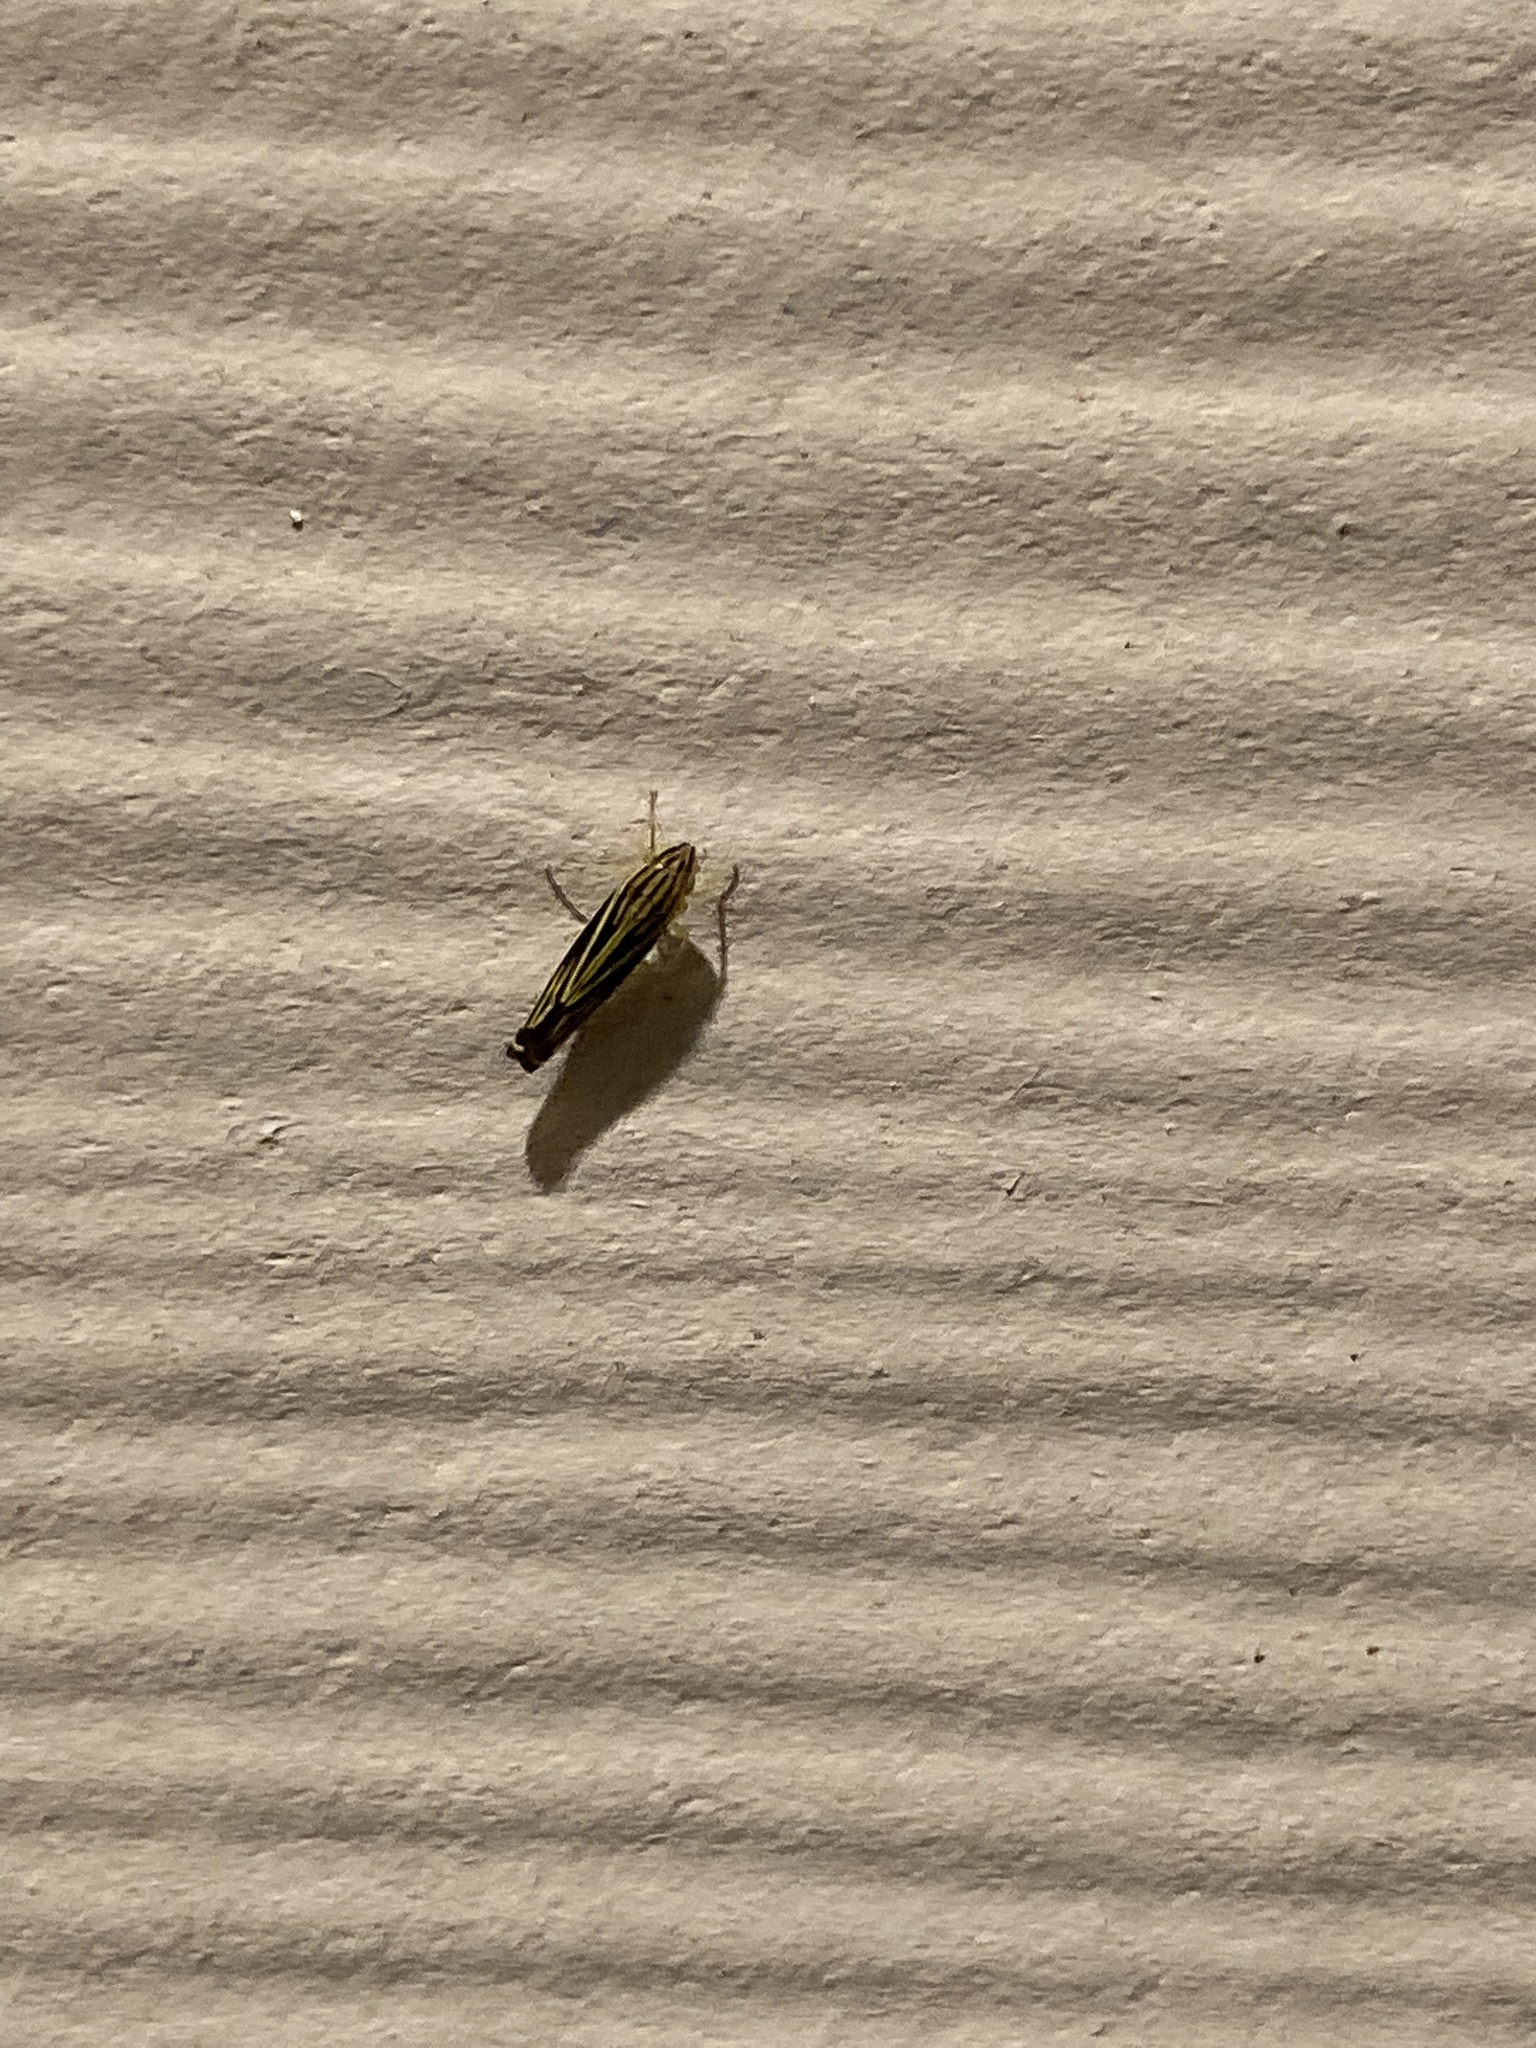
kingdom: Animalia
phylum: Arthropoda
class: Insecta
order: Hemiptera
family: Cicadellidae
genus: Sibovia
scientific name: Sibovia occatoria
